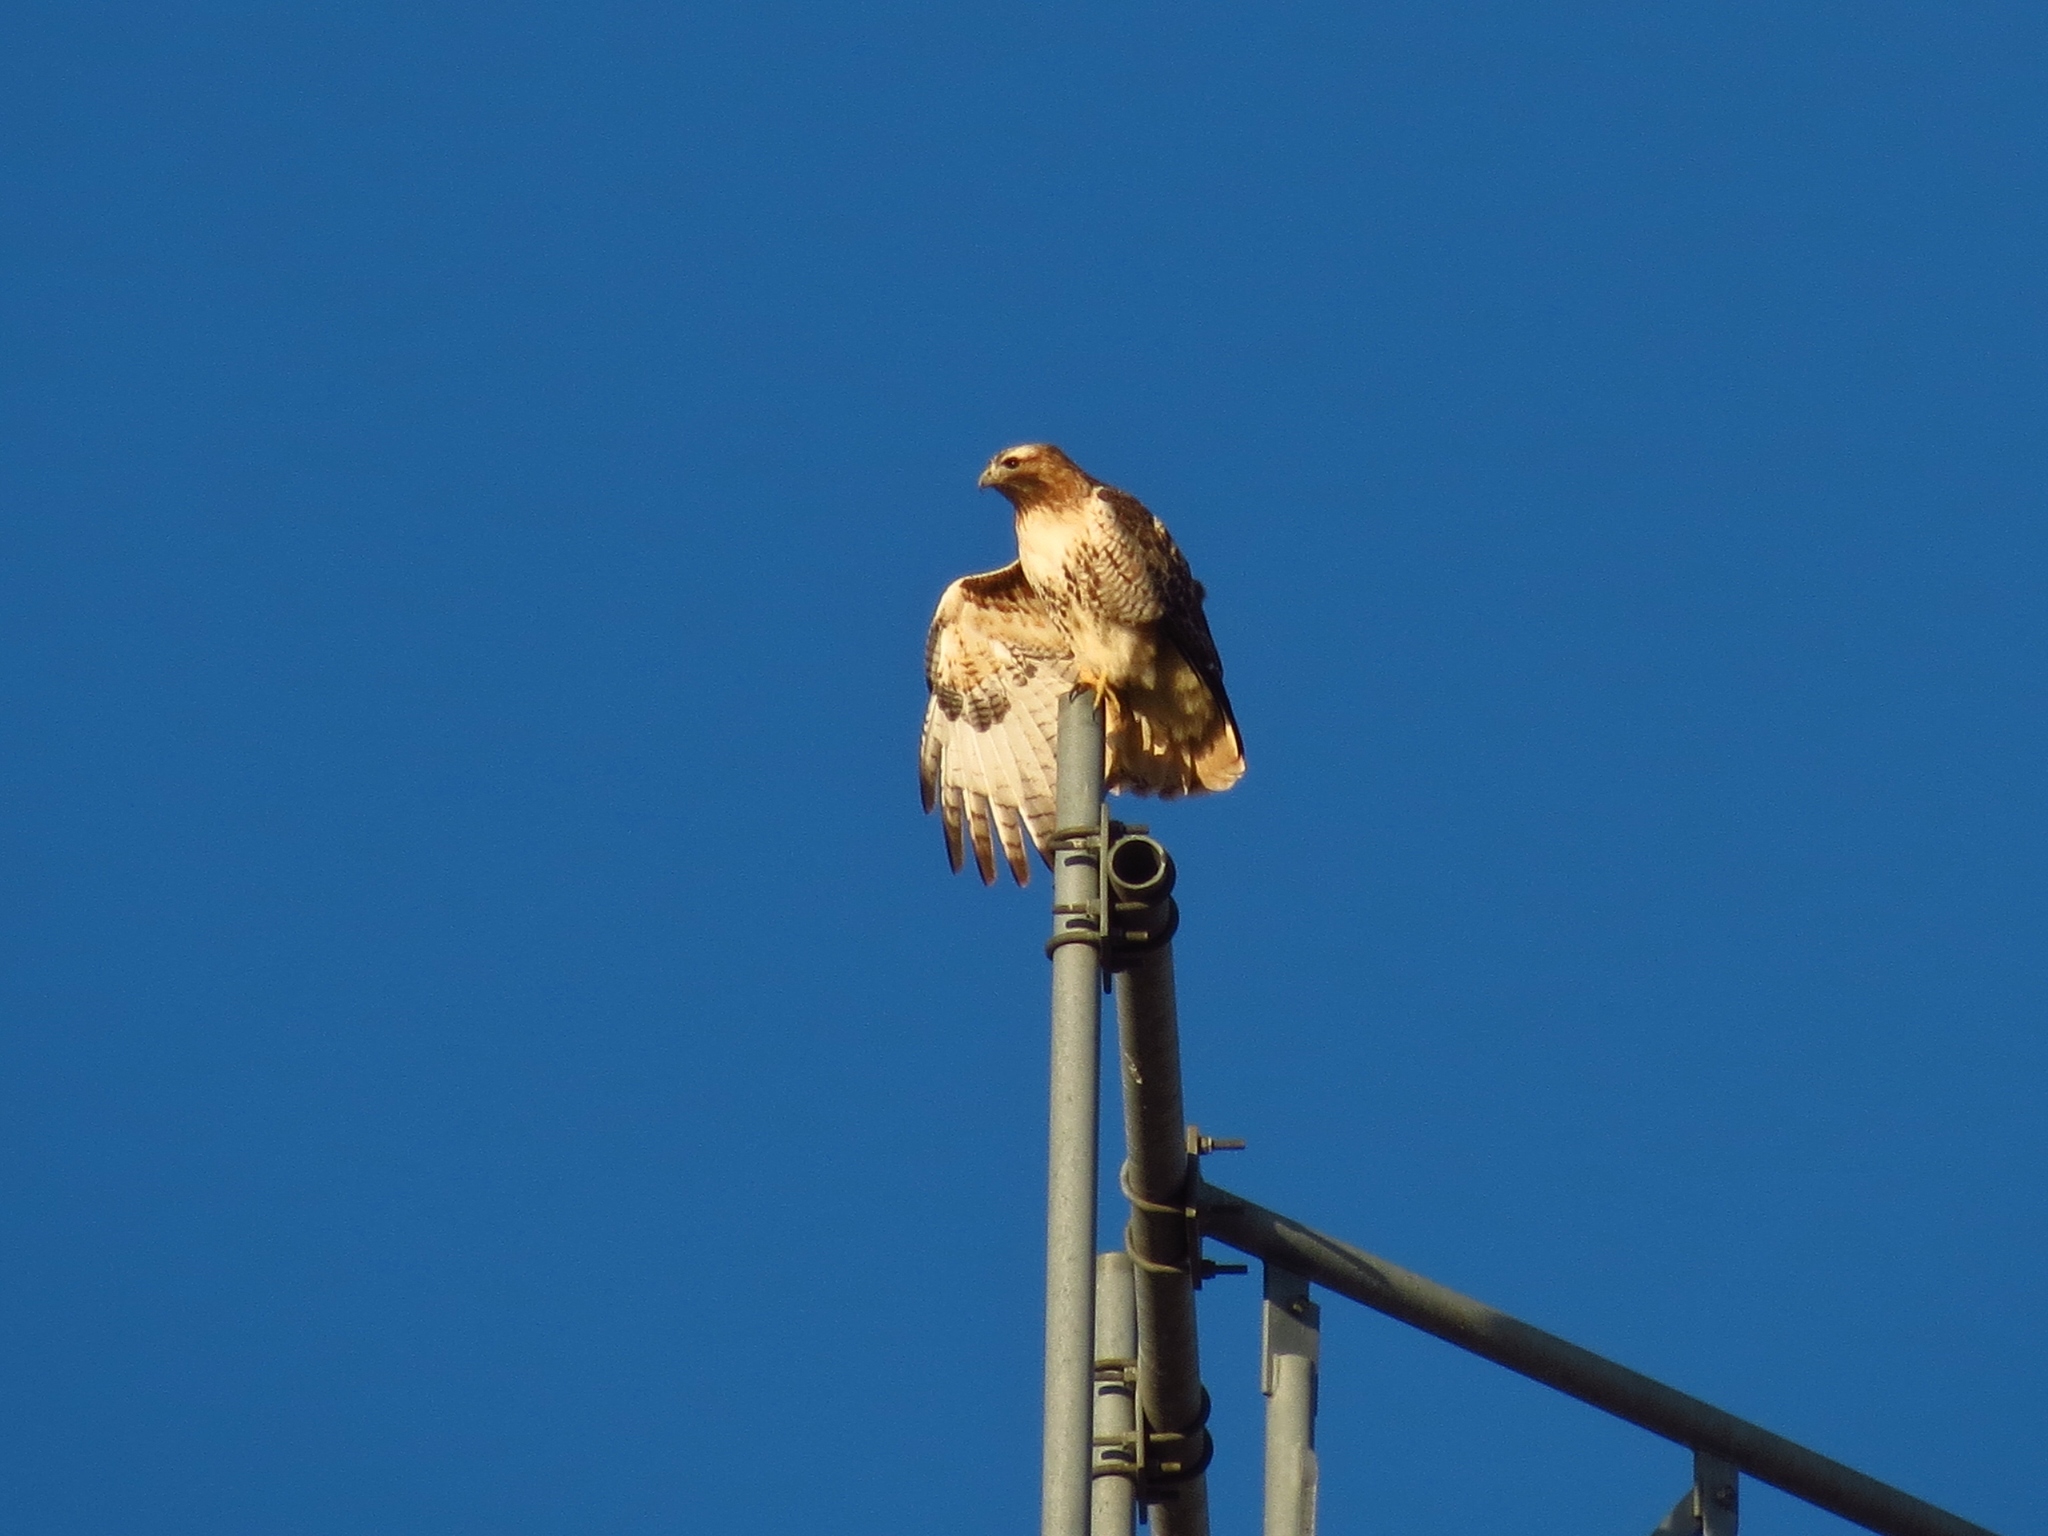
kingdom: Animalia
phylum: Chordata
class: Aves
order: Accipitriformes
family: Accipitridae
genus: Buteo
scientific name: Buteo jamaicensis
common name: Red-tailed hawk
